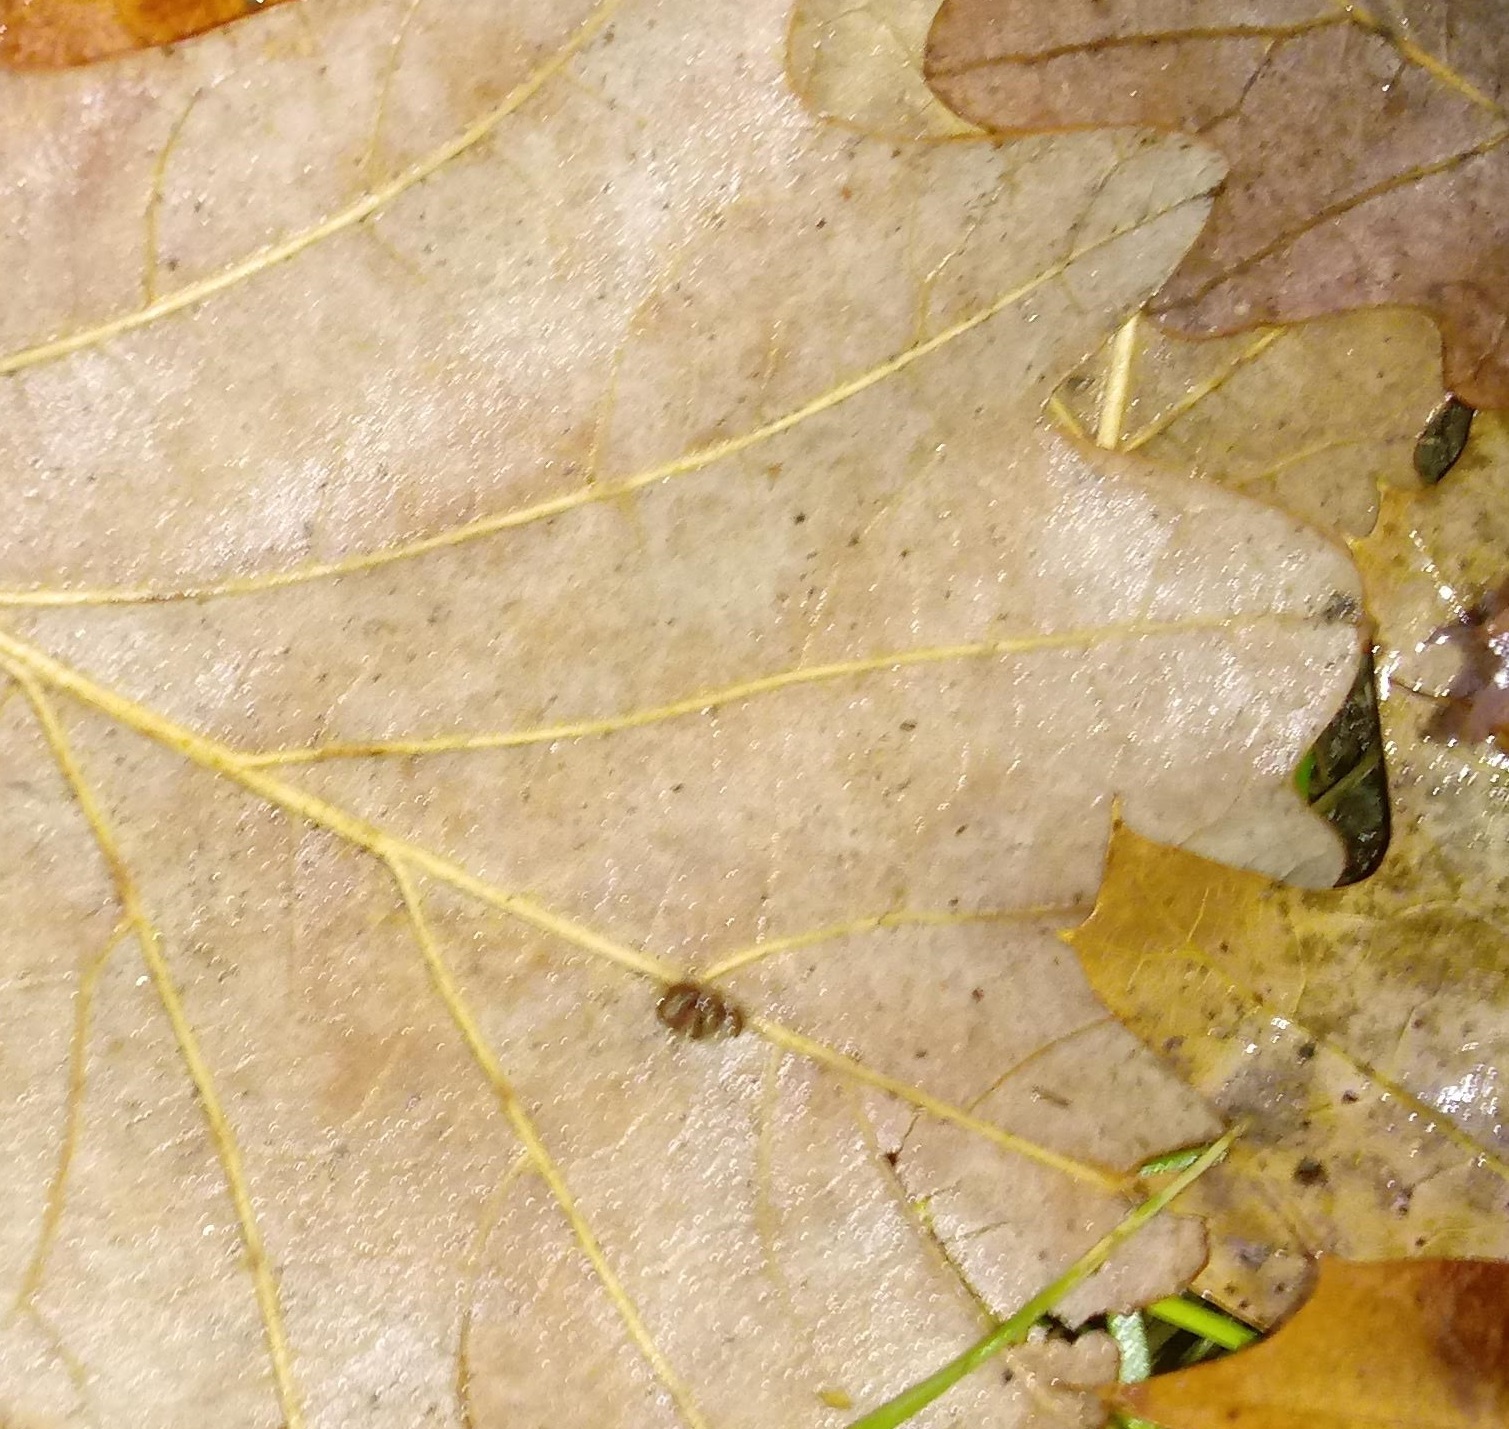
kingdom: Animalia
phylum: Arthropoda
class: Insecta
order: Hymenoptera
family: Cynipidae
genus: Andricus
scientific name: Andricus Druon ignotum
